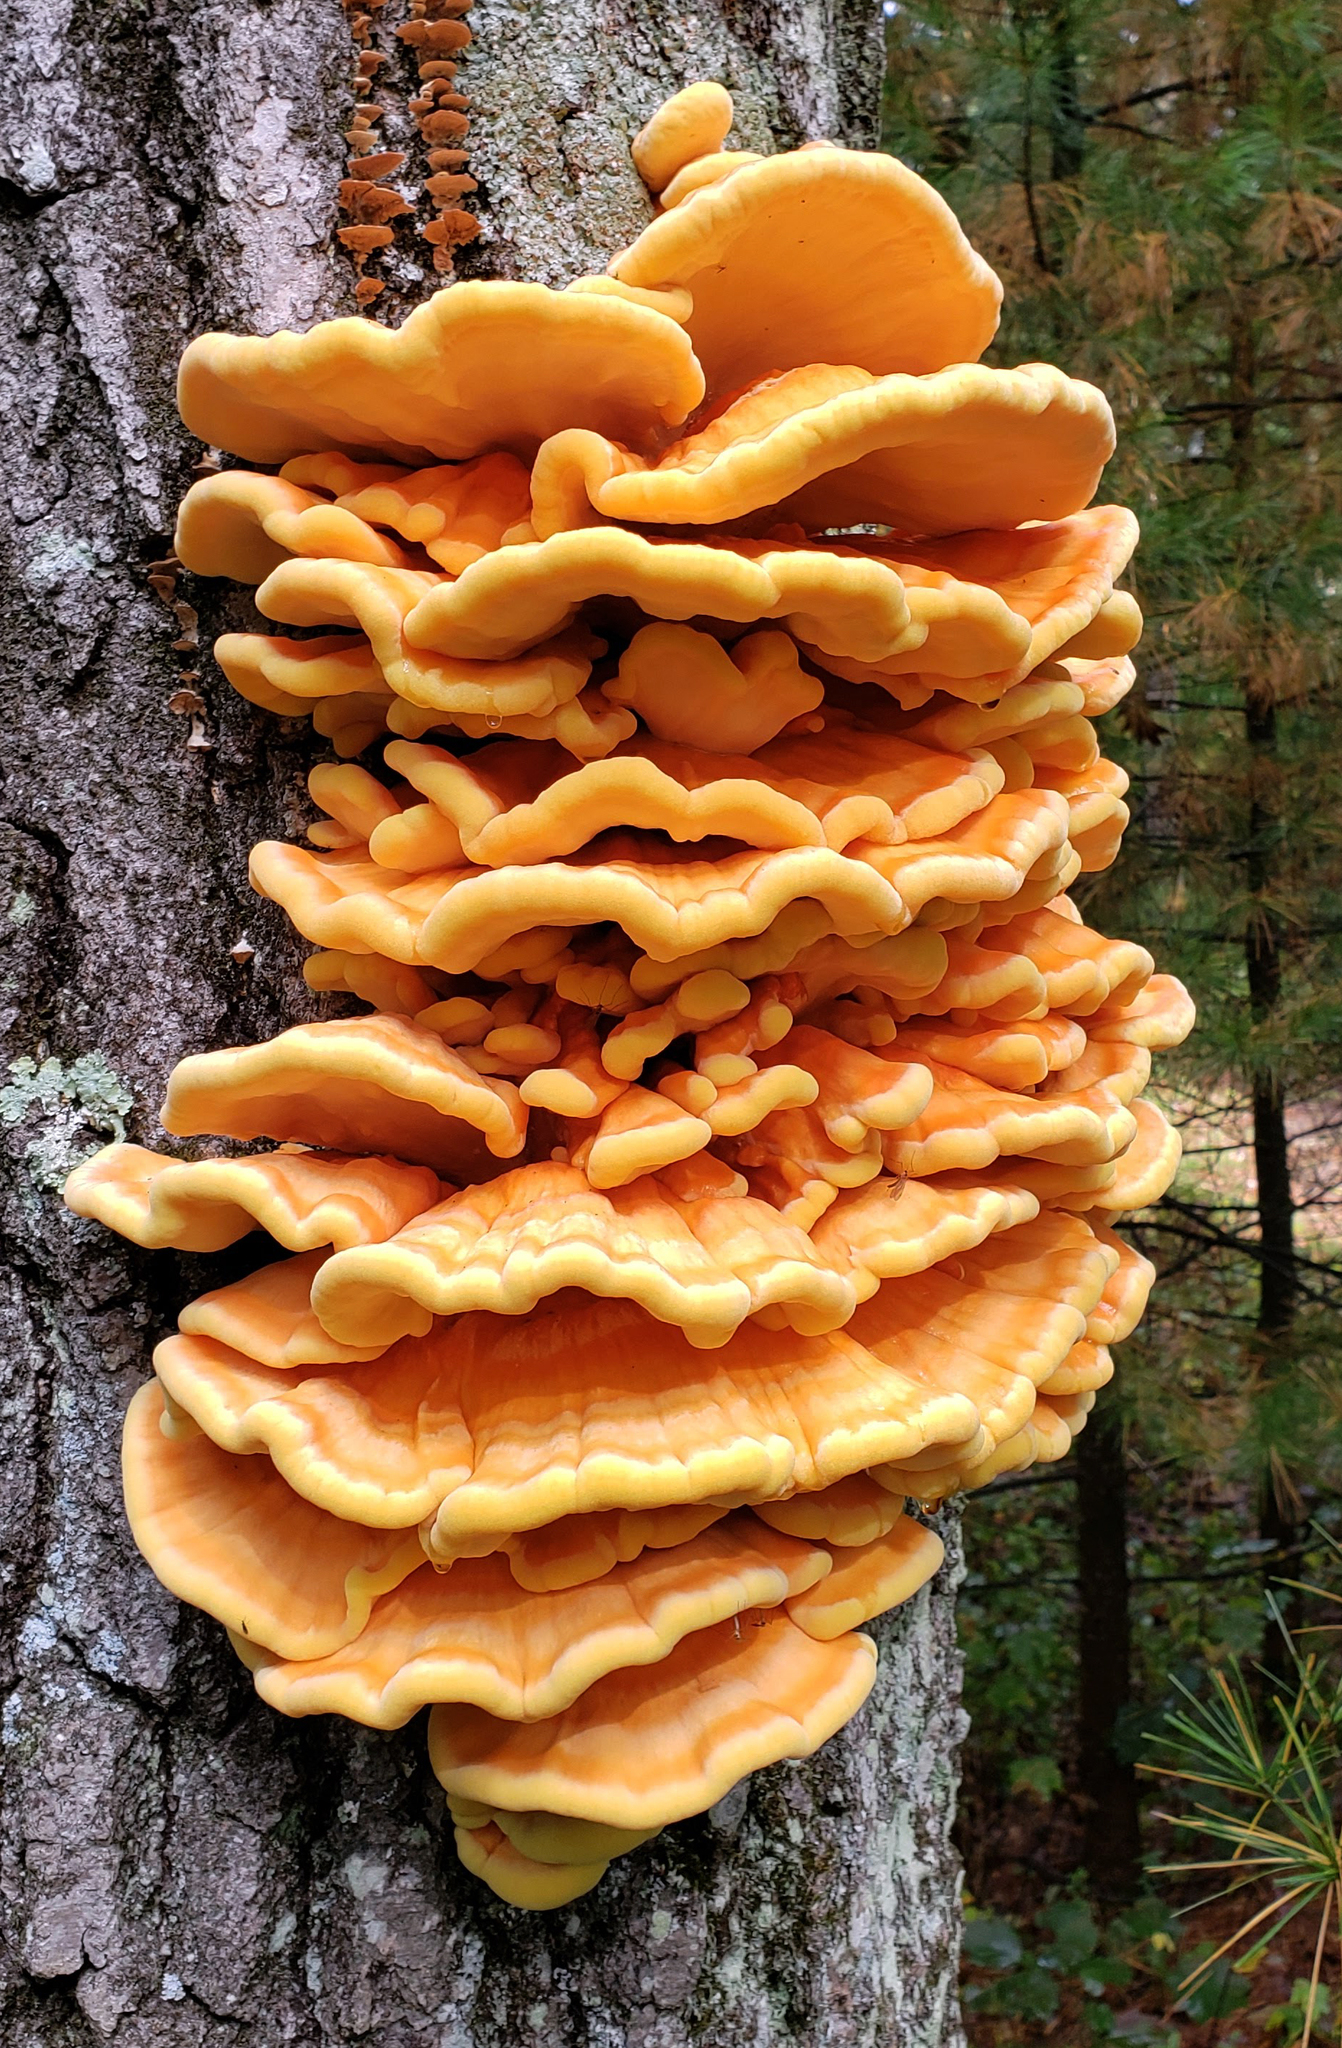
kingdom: Fungi
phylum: Basidiomycota
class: Agaricomycetes
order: Polyporales
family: Laetiporaceae
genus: Laetiporus
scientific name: Laetiporus sulphureus
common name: Chicken of the woods
